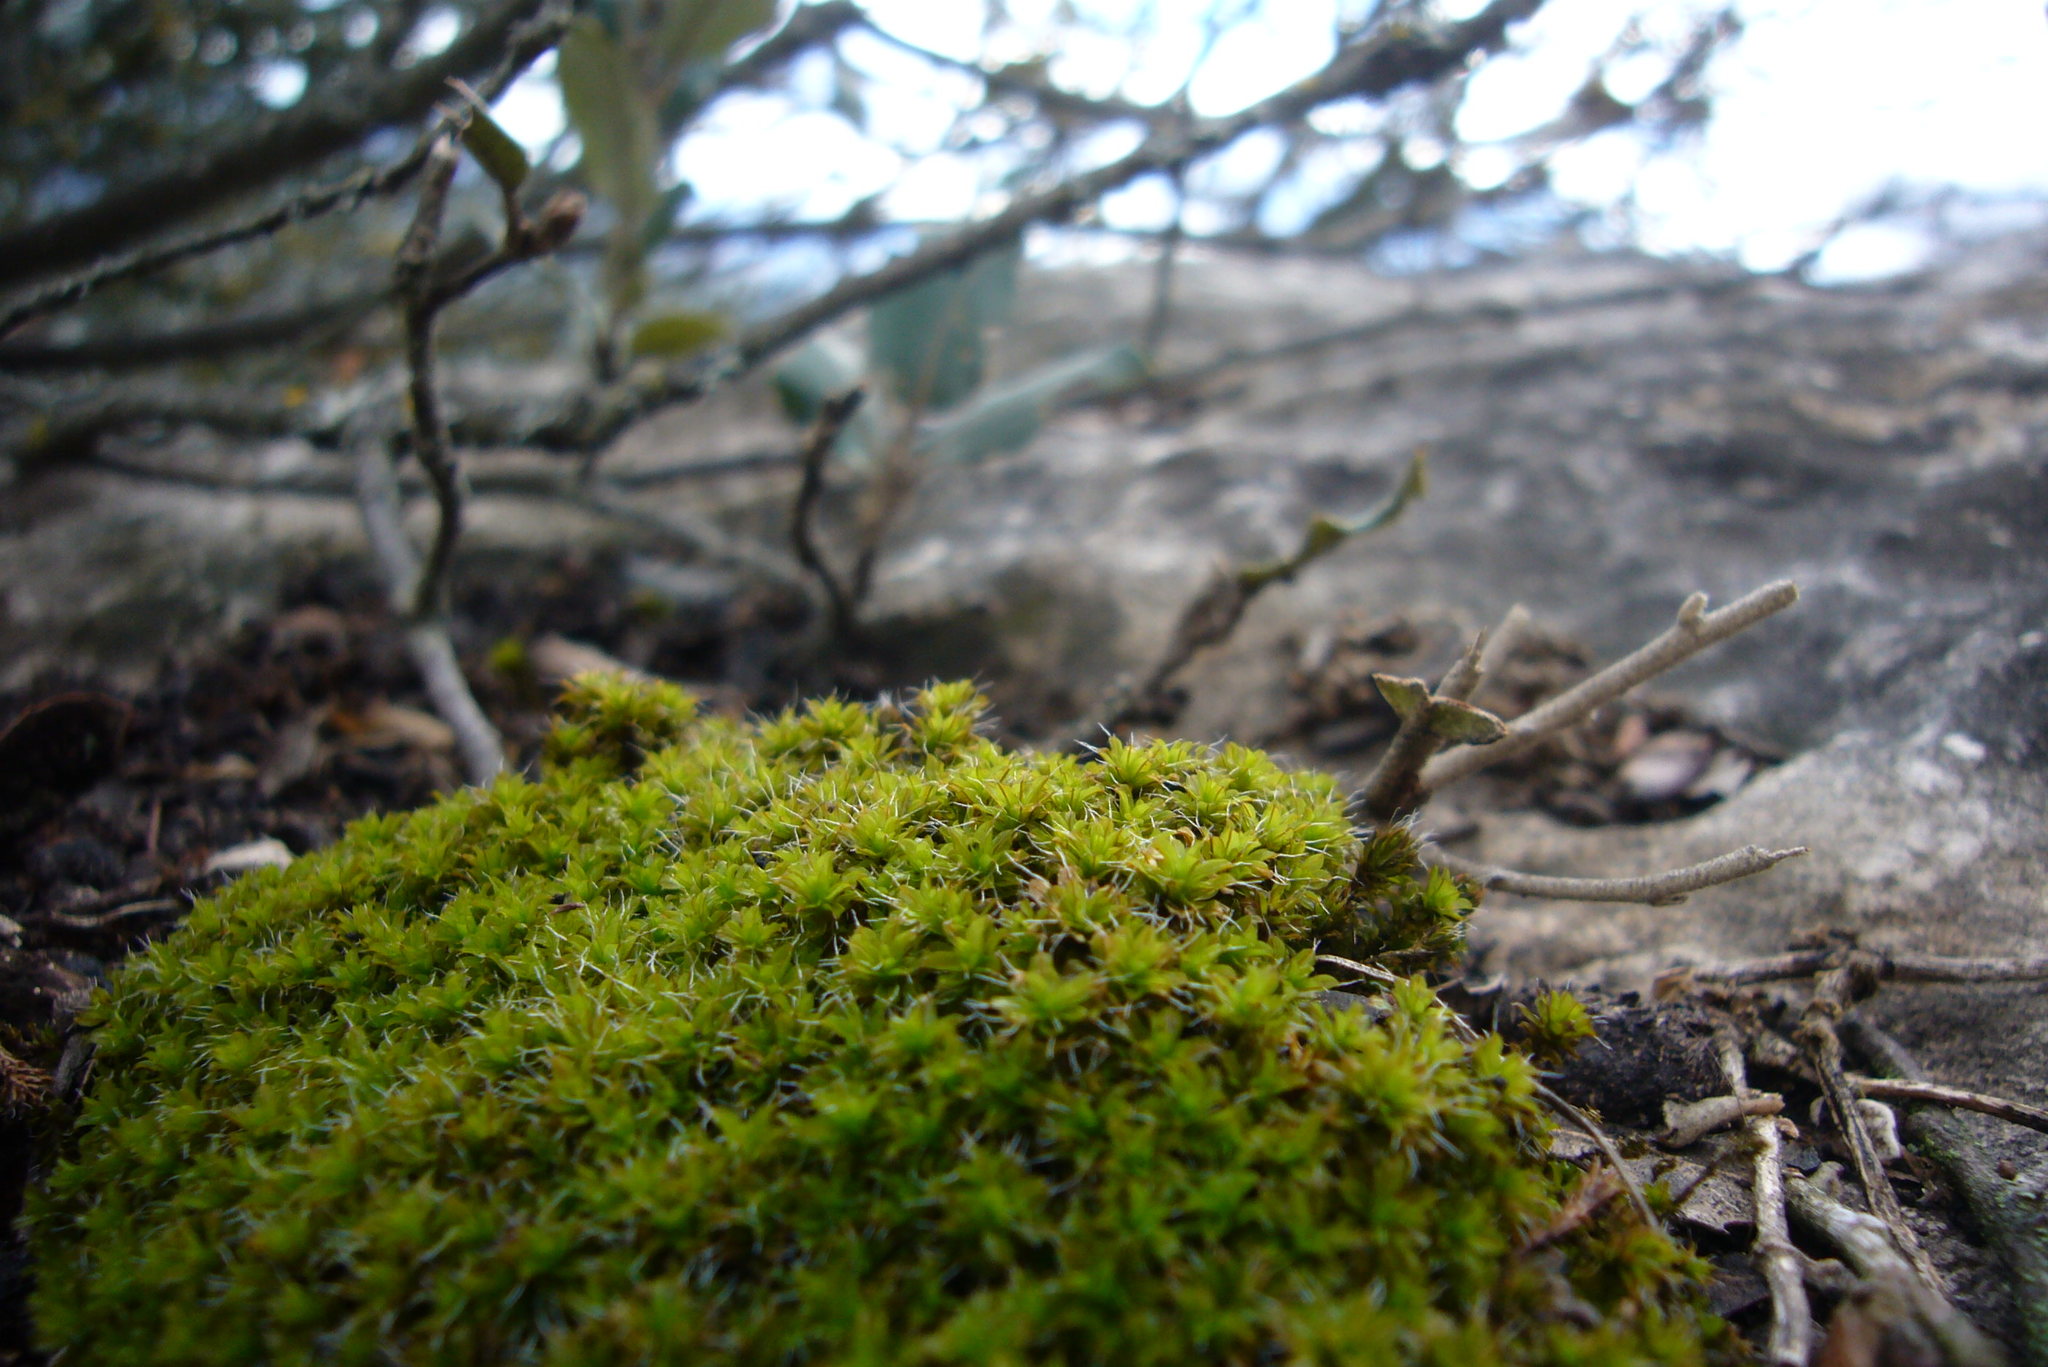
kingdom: Plantae
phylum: Bryophyta
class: Bryopsida
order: Pottiales
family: Pottiaceae
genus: Syntrichia
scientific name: Syntrichia ruralis
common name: Sidewalk screw moss
